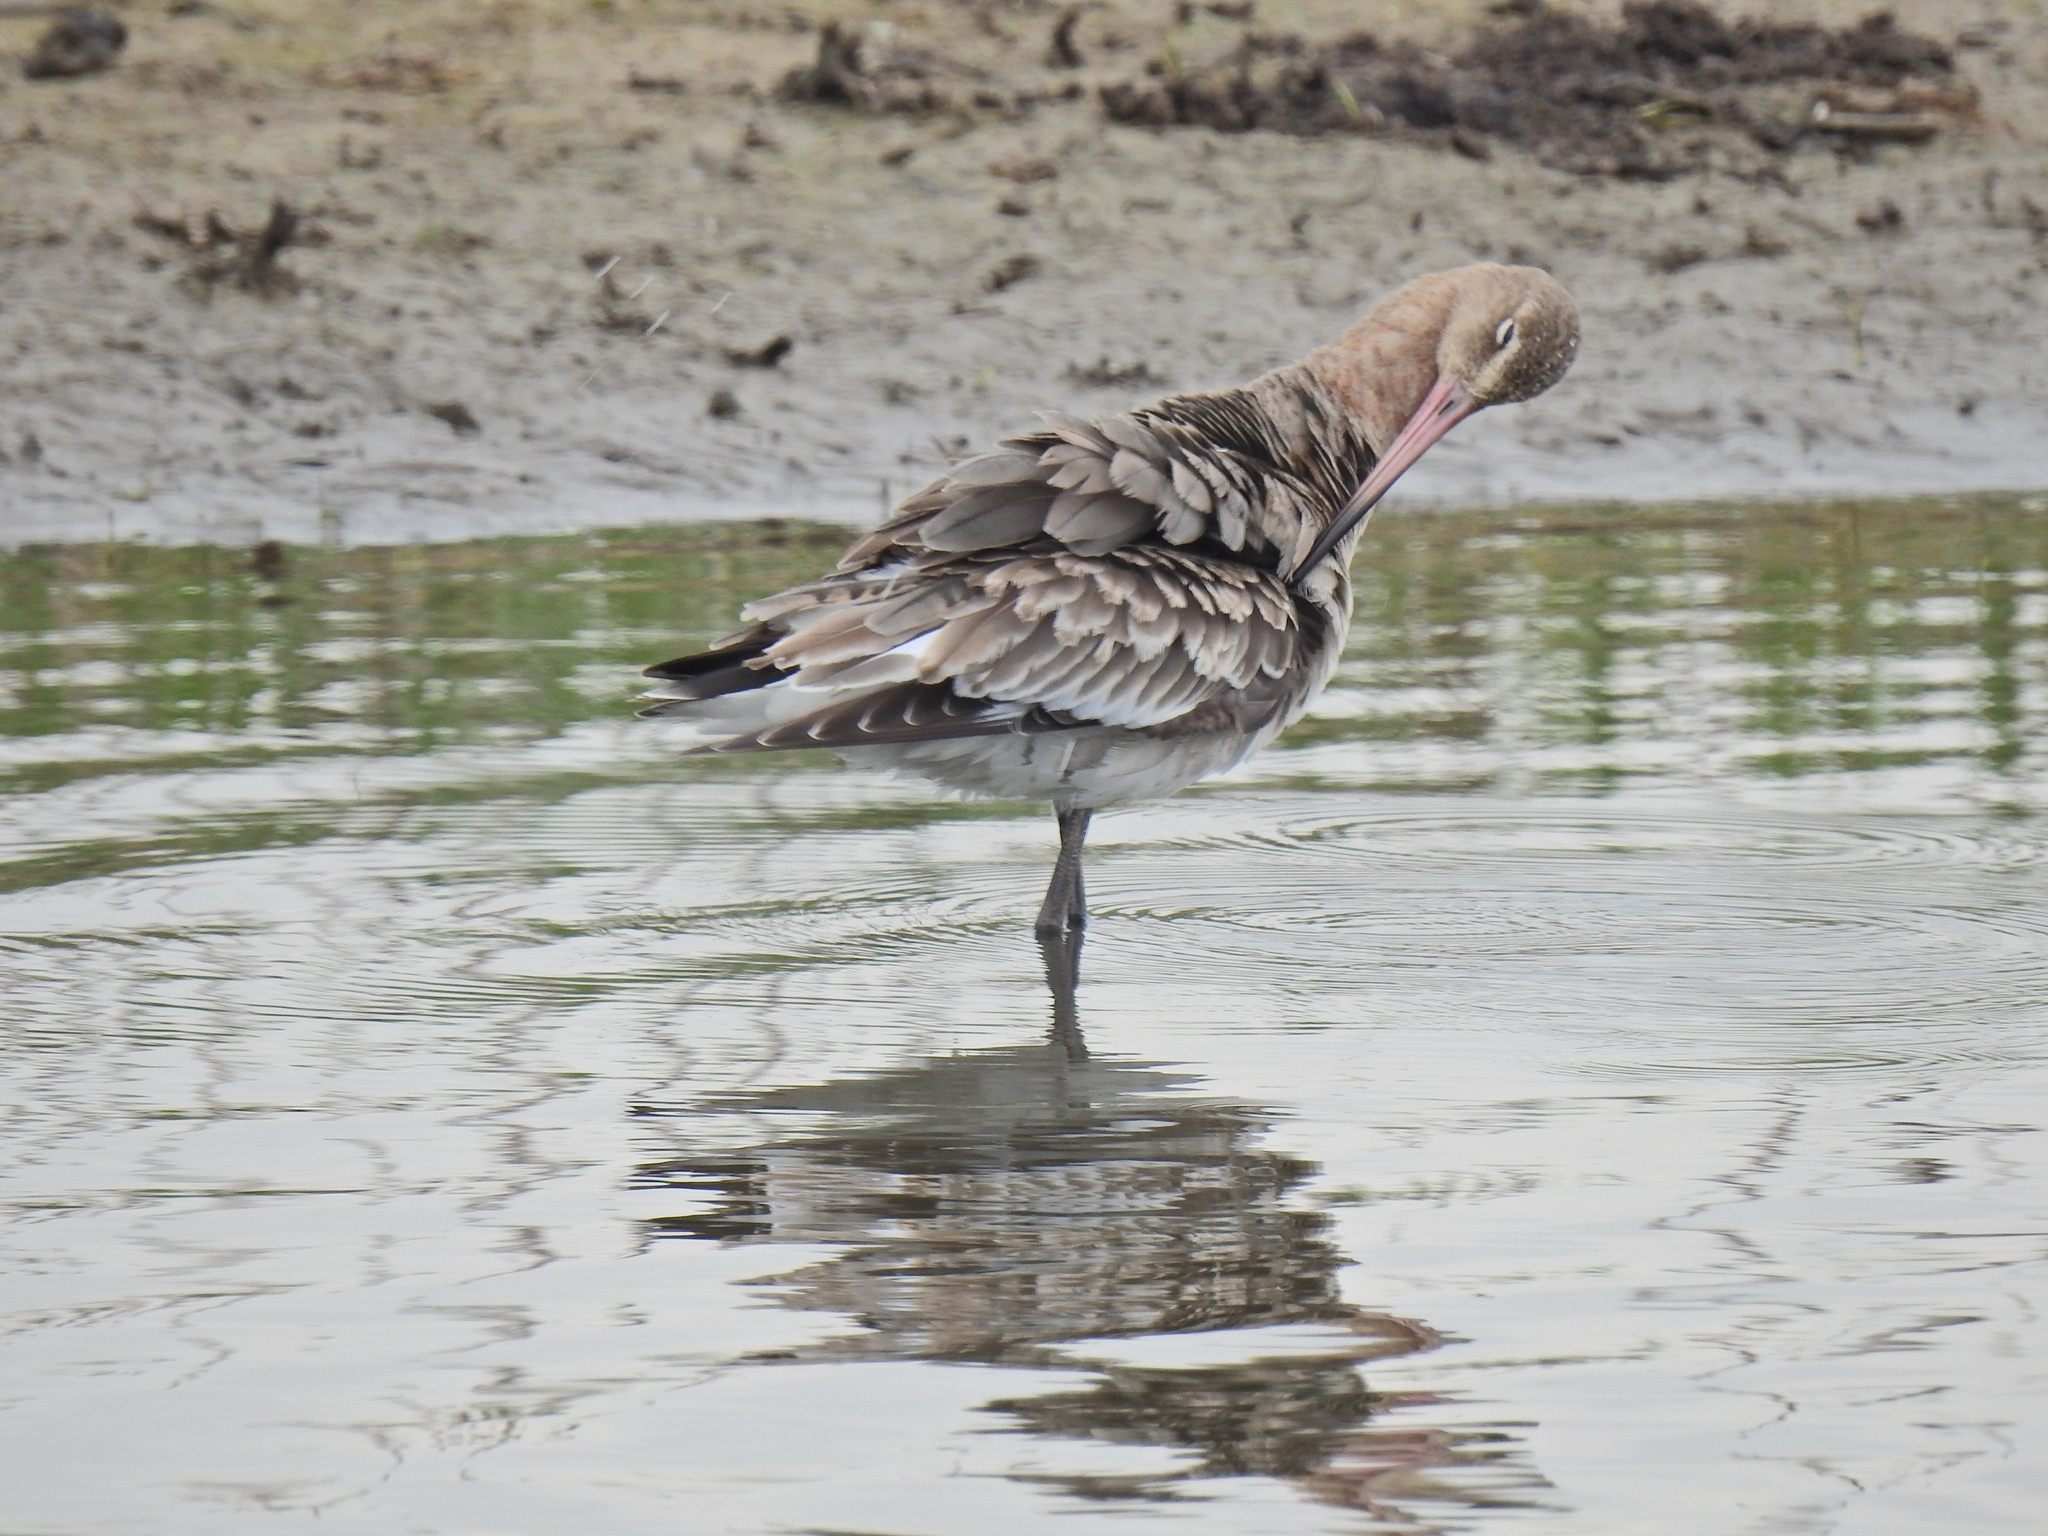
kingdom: Animalia
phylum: Chordata
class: Aves
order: Charadriiformes
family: Scolopacidae
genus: Limosa
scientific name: Limosa limosa
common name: Black-tailed godwit
